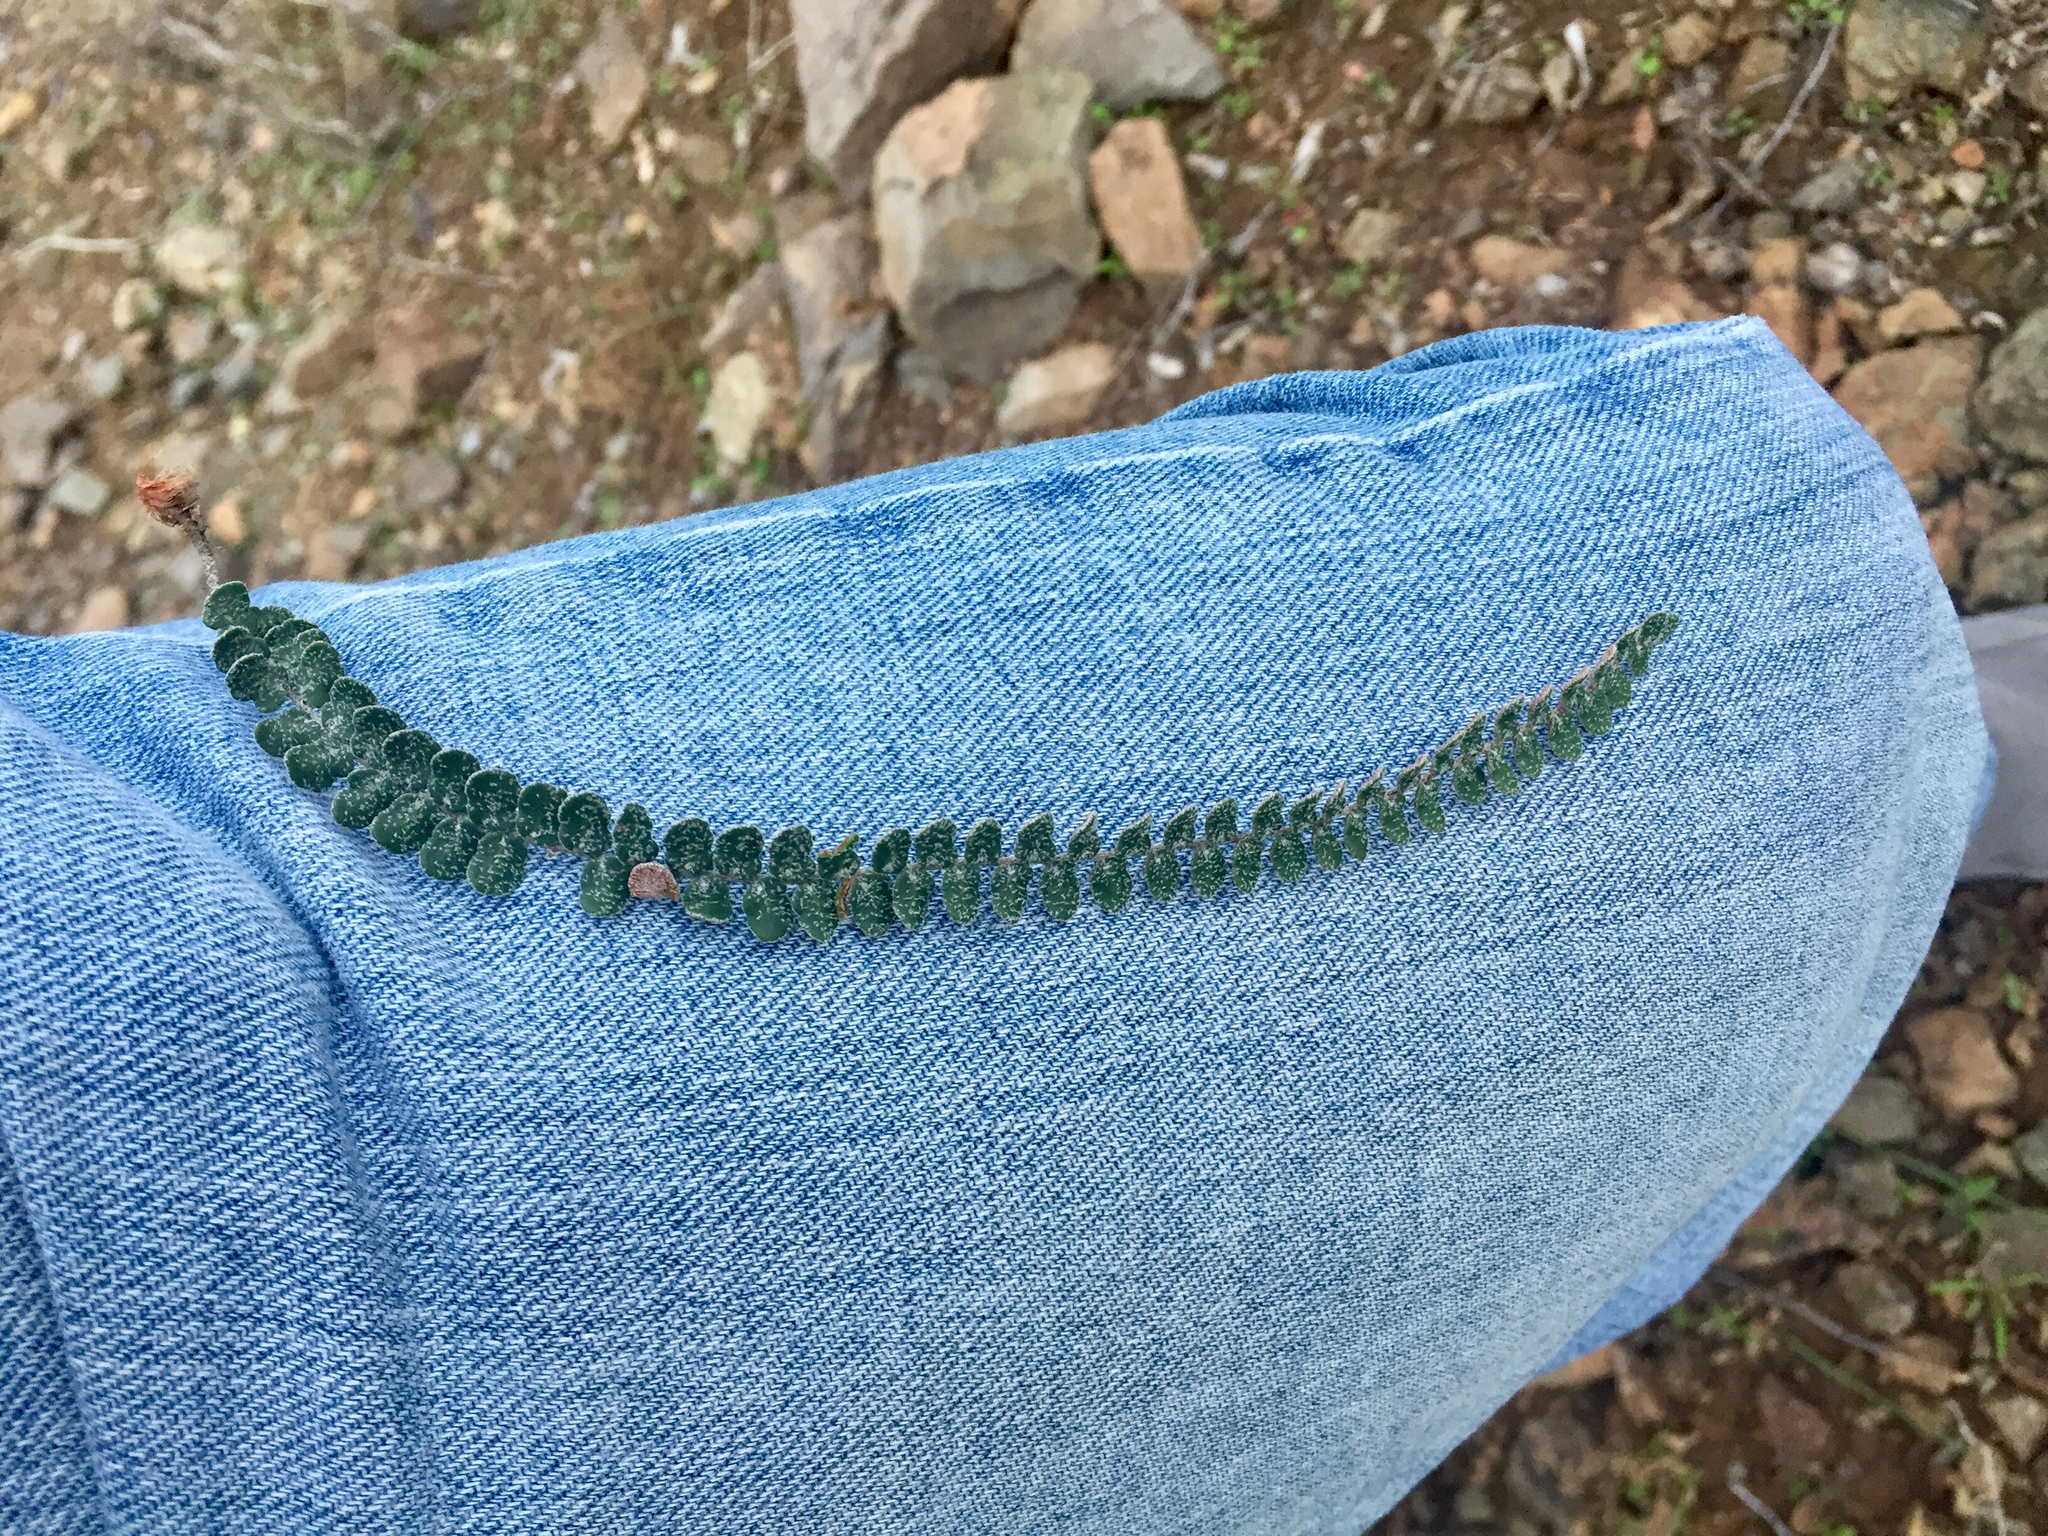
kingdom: Plantae
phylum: Tracheophyta
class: Polypodiopsida
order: Polypodiales
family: Pteridaceae
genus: Astrolepis
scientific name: Astrolepis cochisensis
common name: Scaly cloak fern
